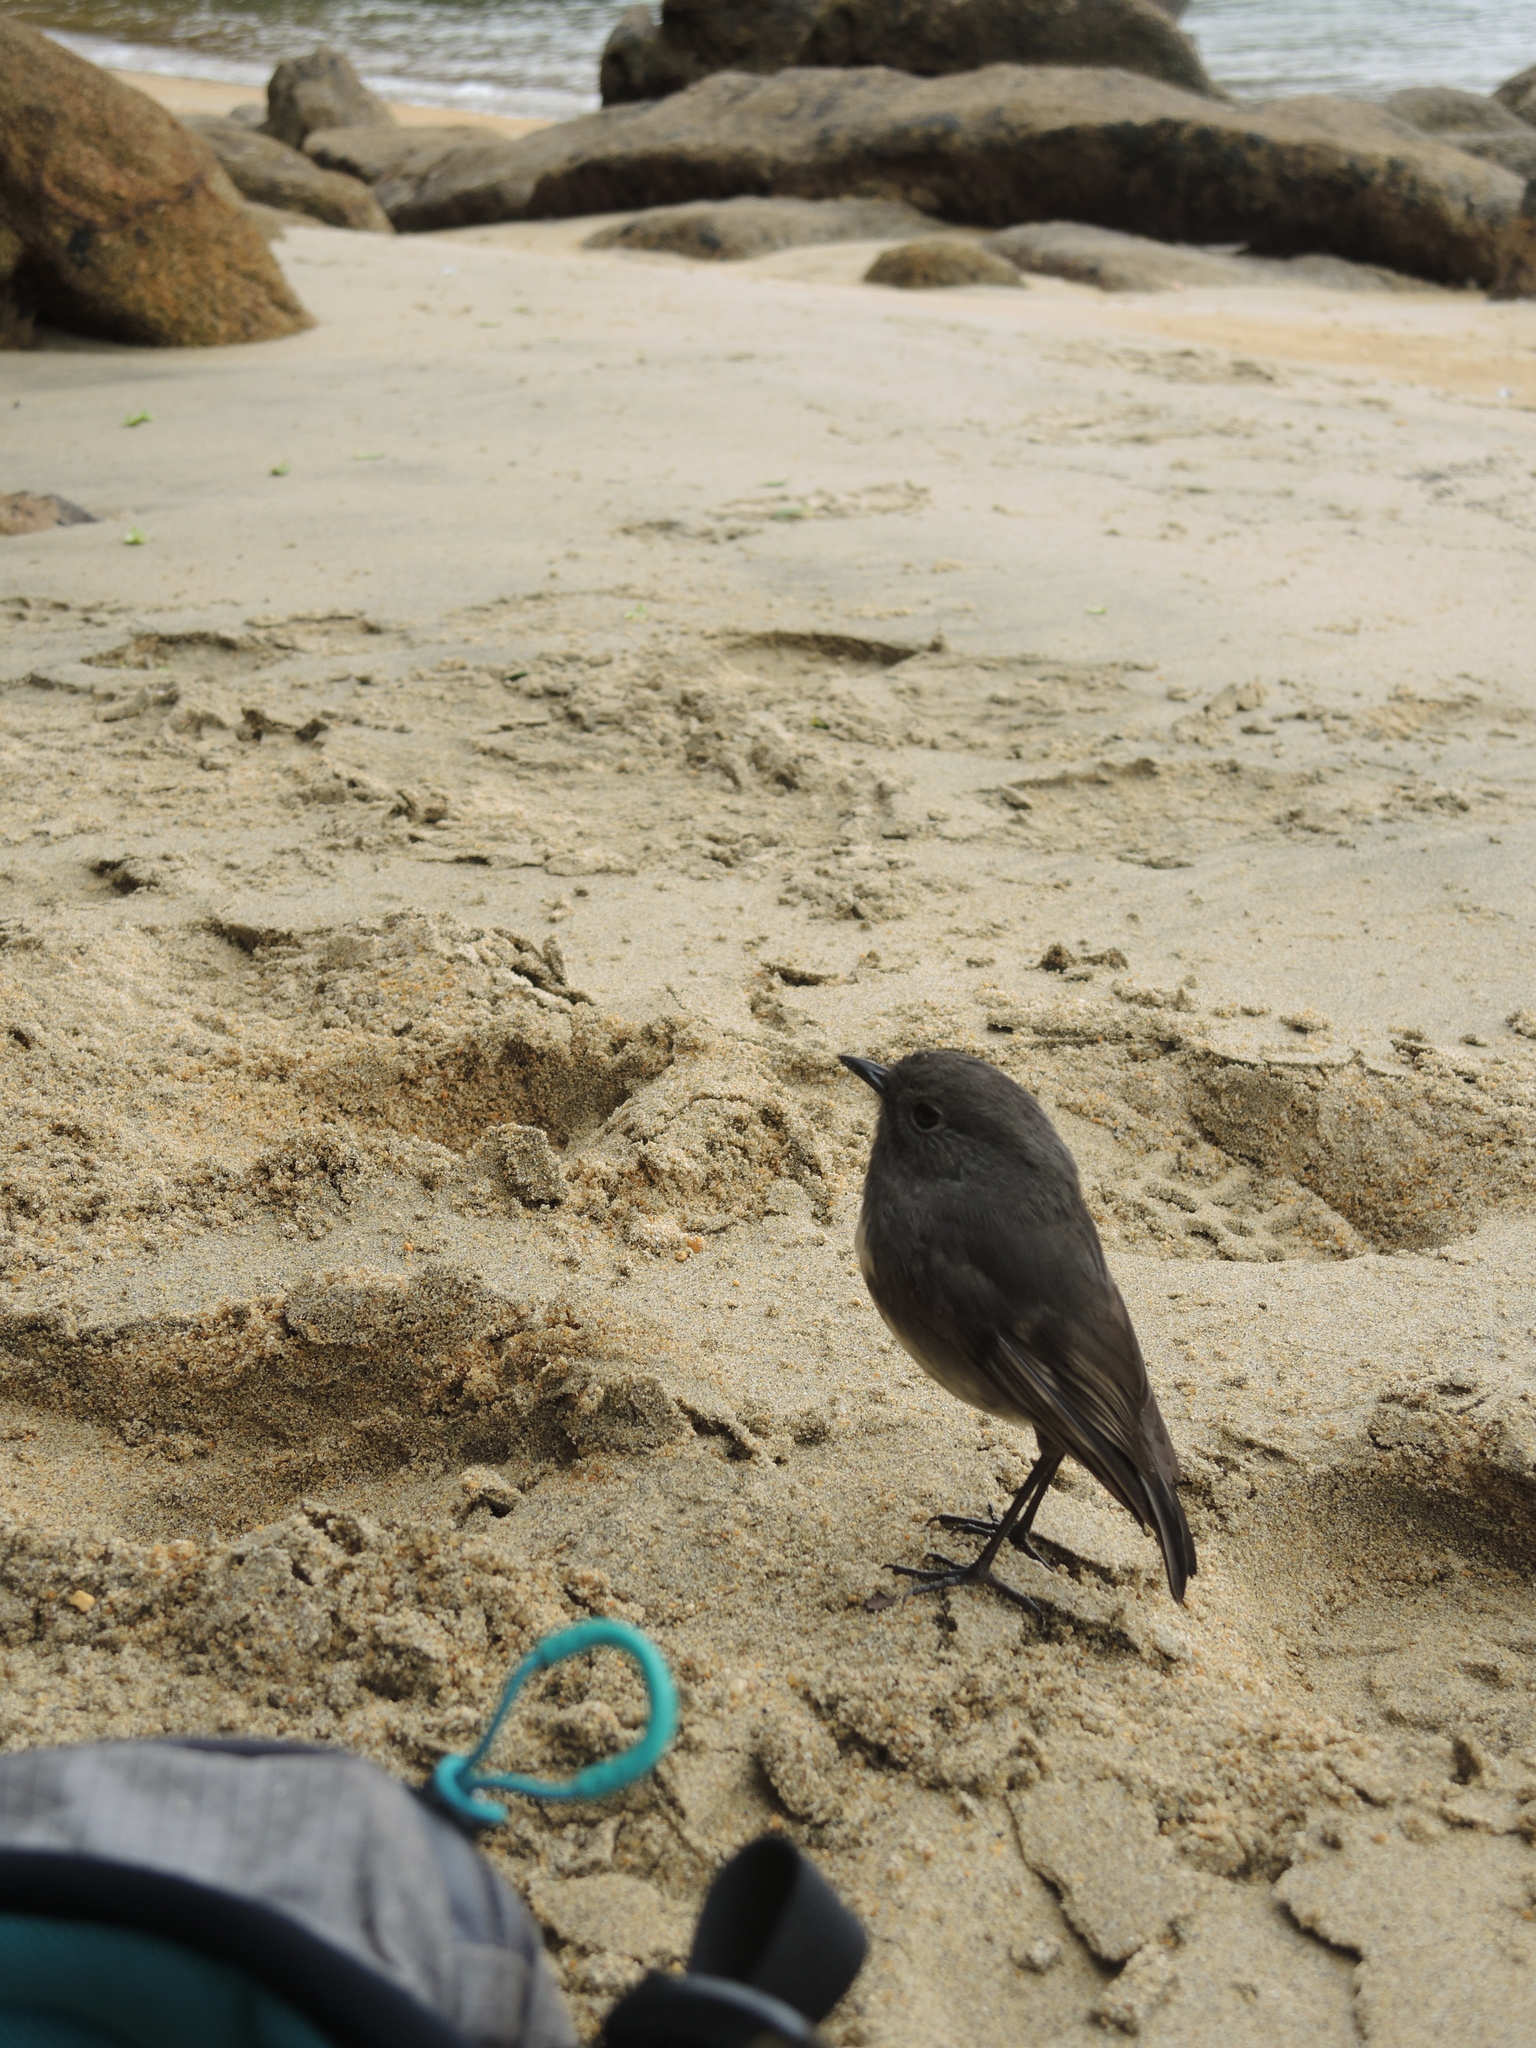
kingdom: Animalia
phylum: Chordata
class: Aves
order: Passeriformes
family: Petroicidae
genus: Petroica
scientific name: Petroica australis
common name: New zealand robin
